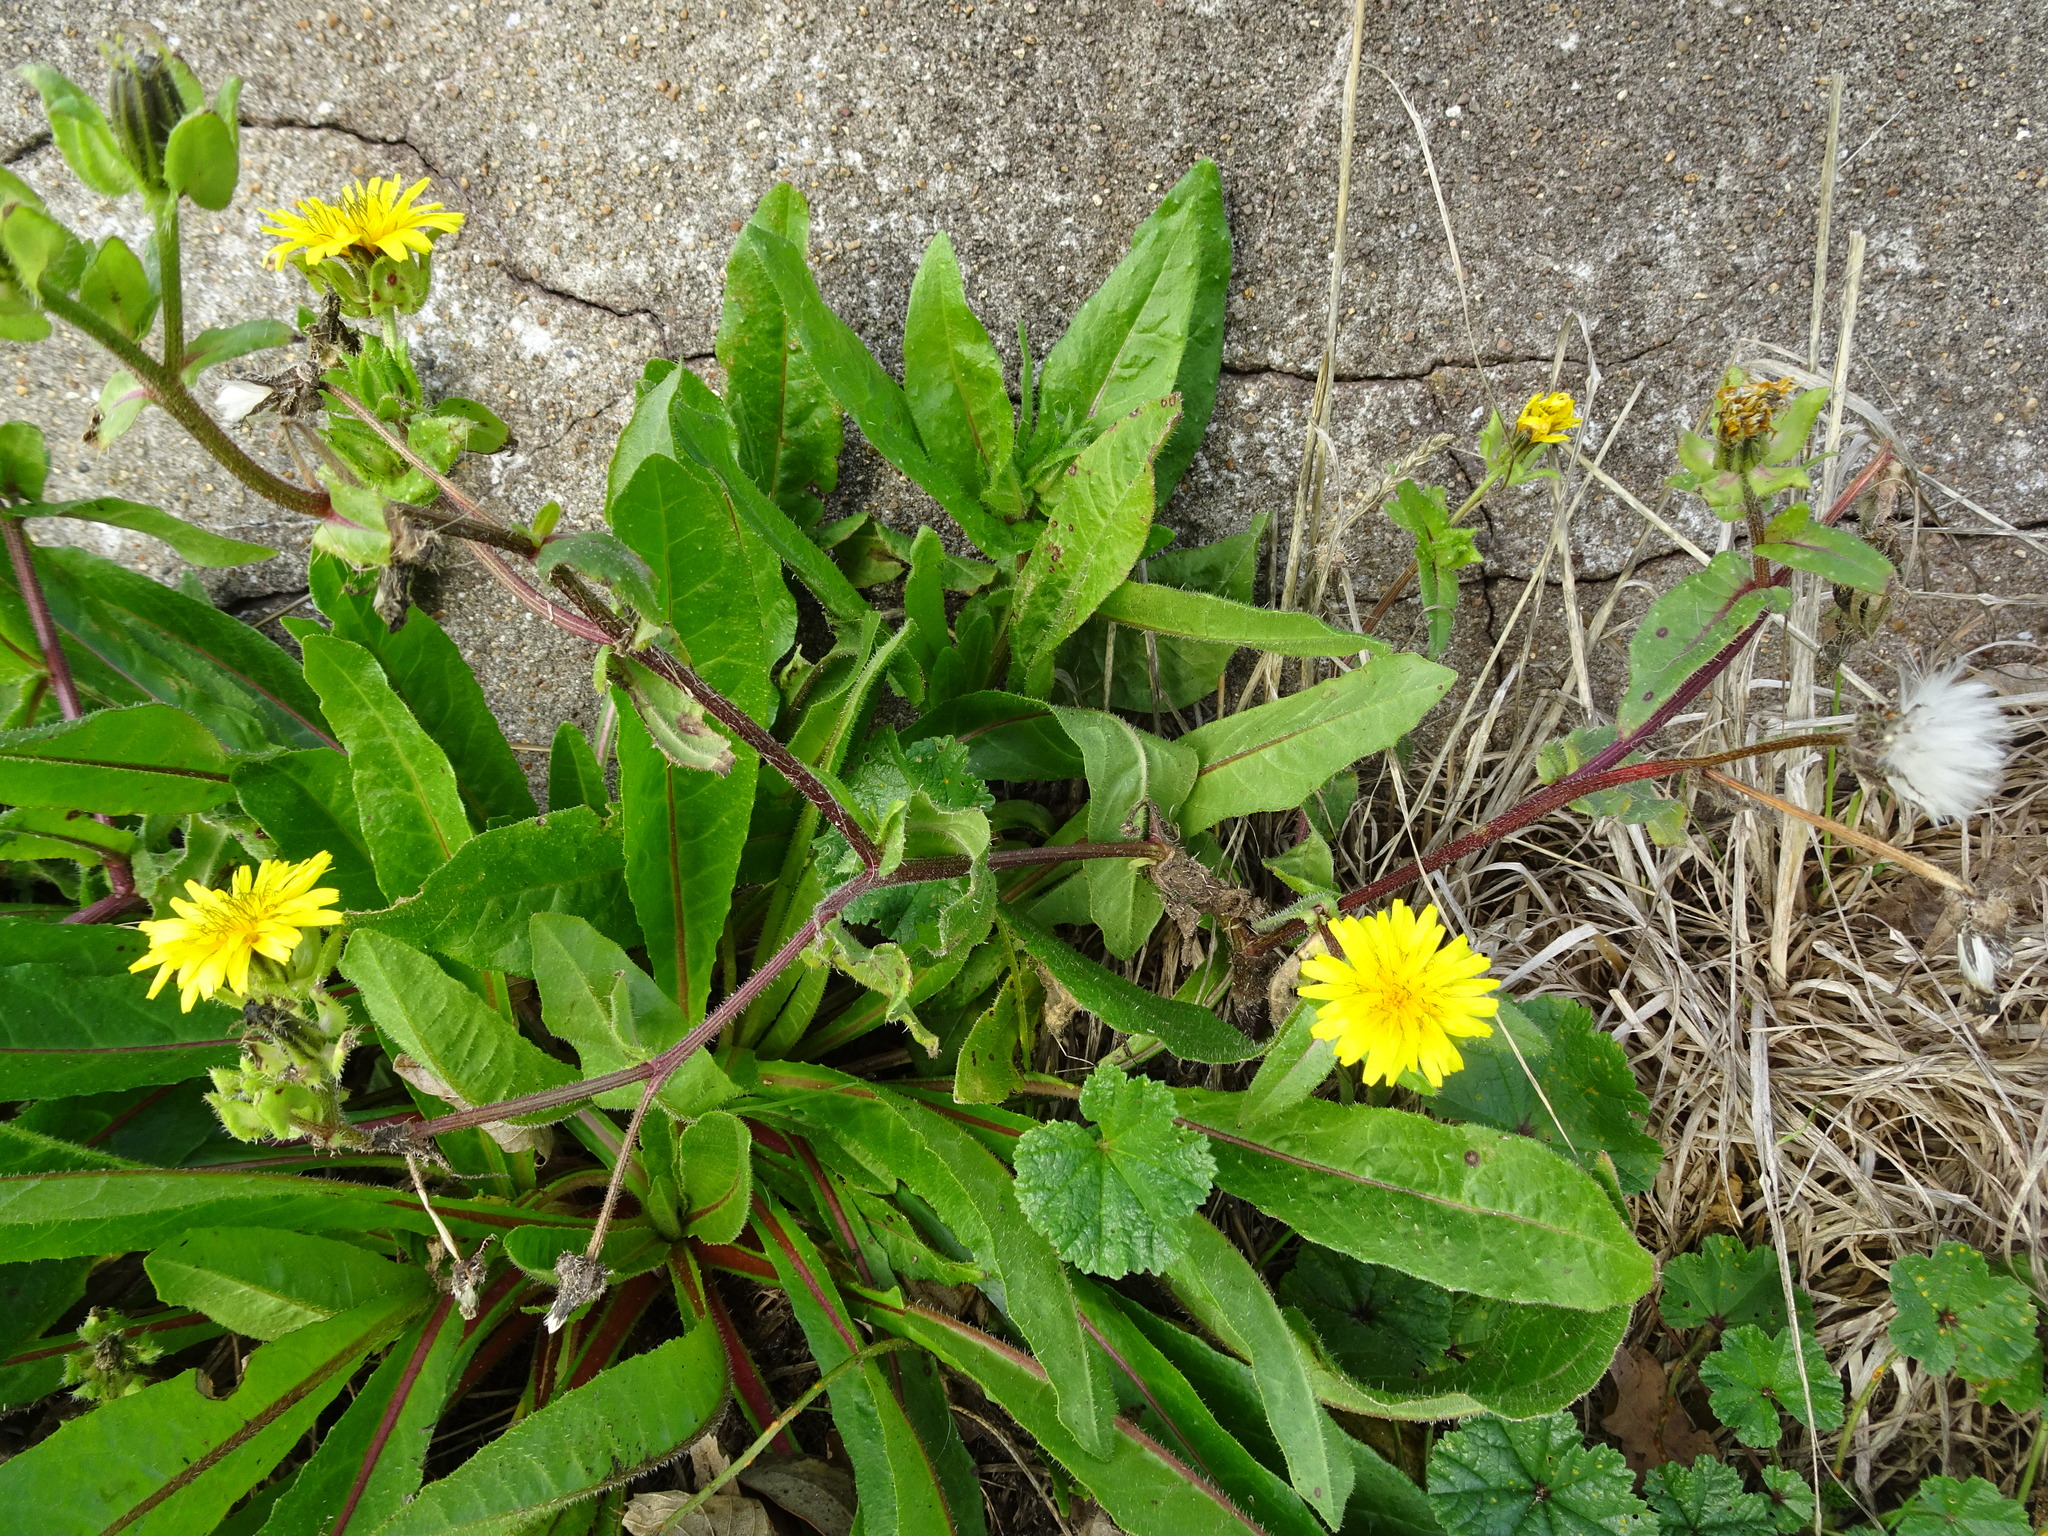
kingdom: Plantae
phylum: Tracheophyta
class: Magnoliopsida
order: Asterales
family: Asteraceae
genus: Helminthotheca
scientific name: Helminthotheca echioides
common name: Ox-tongue
